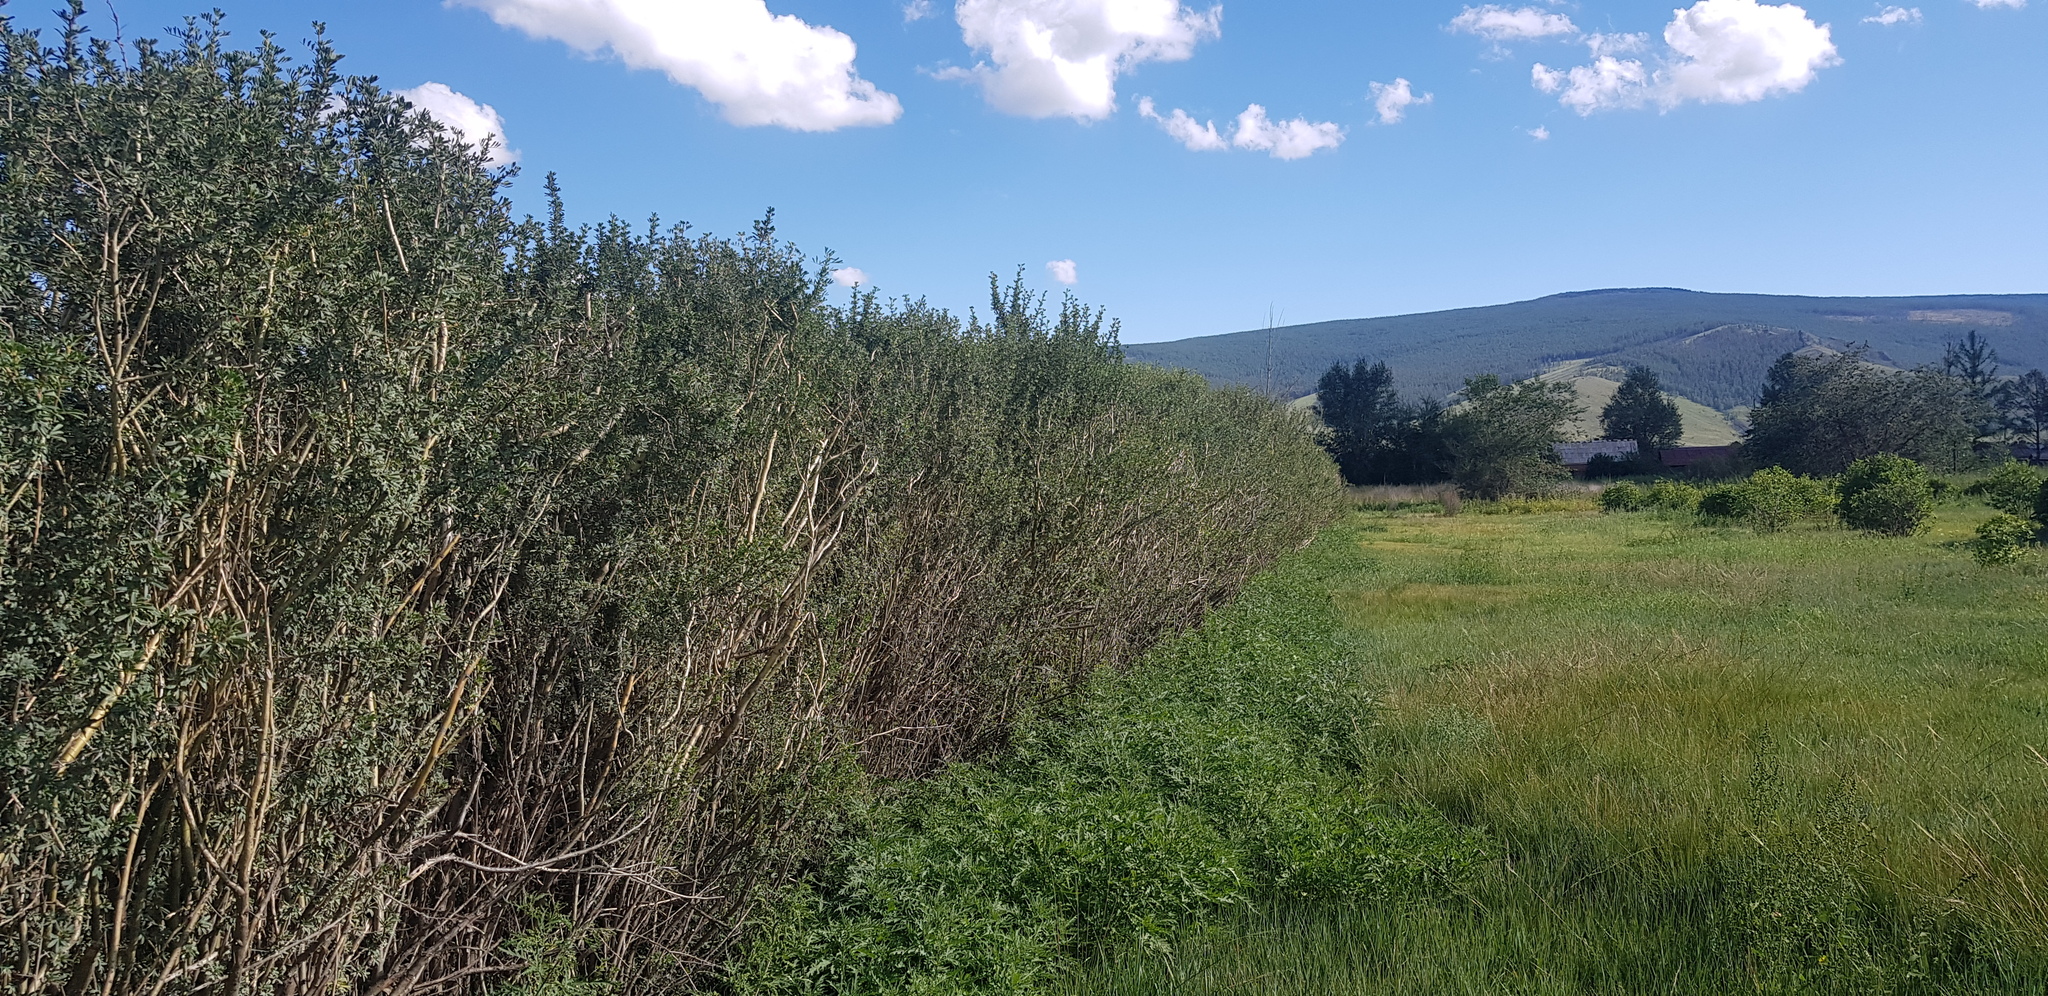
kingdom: Plantae
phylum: Tracheophyta
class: Magnoliopsida
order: Fabales
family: Fabaceae
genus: Caragana
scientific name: Caragana arborescens
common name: Siberian peashrub
